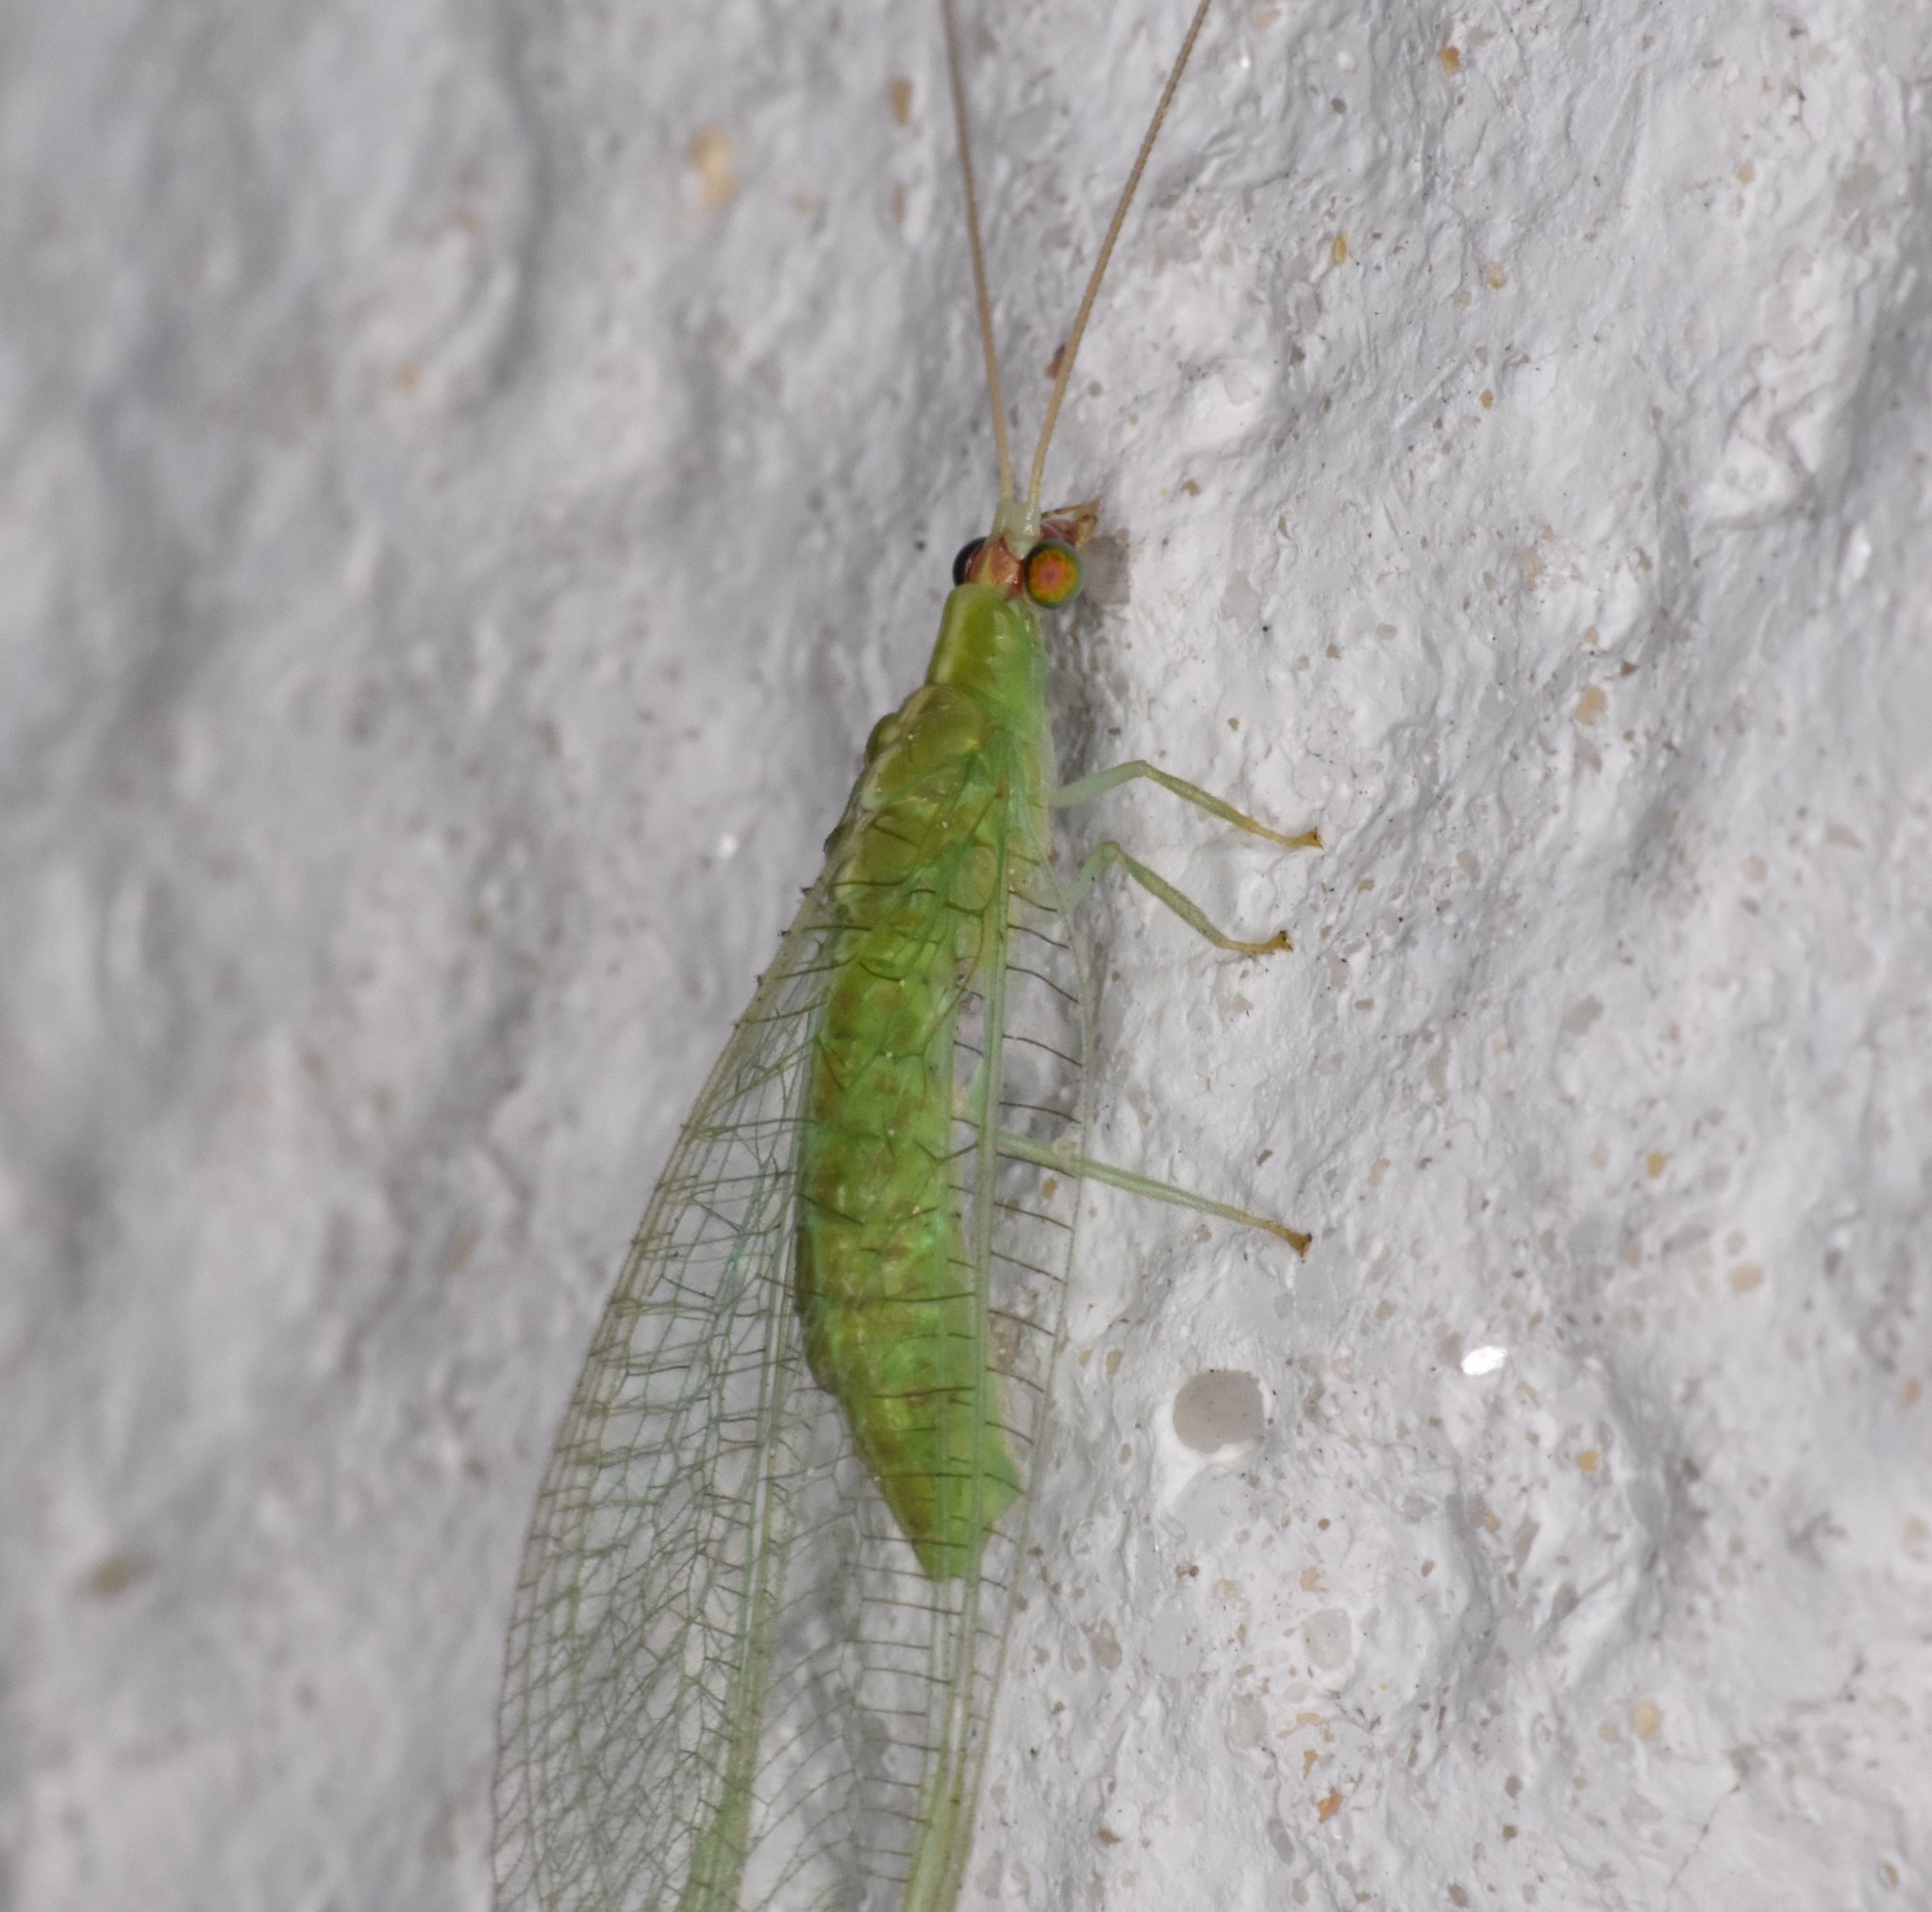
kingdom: Animalia
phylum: Arthropoda
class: Insecta
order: Neuroptera
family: Chrysopidae
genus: Chrysopodes
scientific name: Chrysopodes collaris
